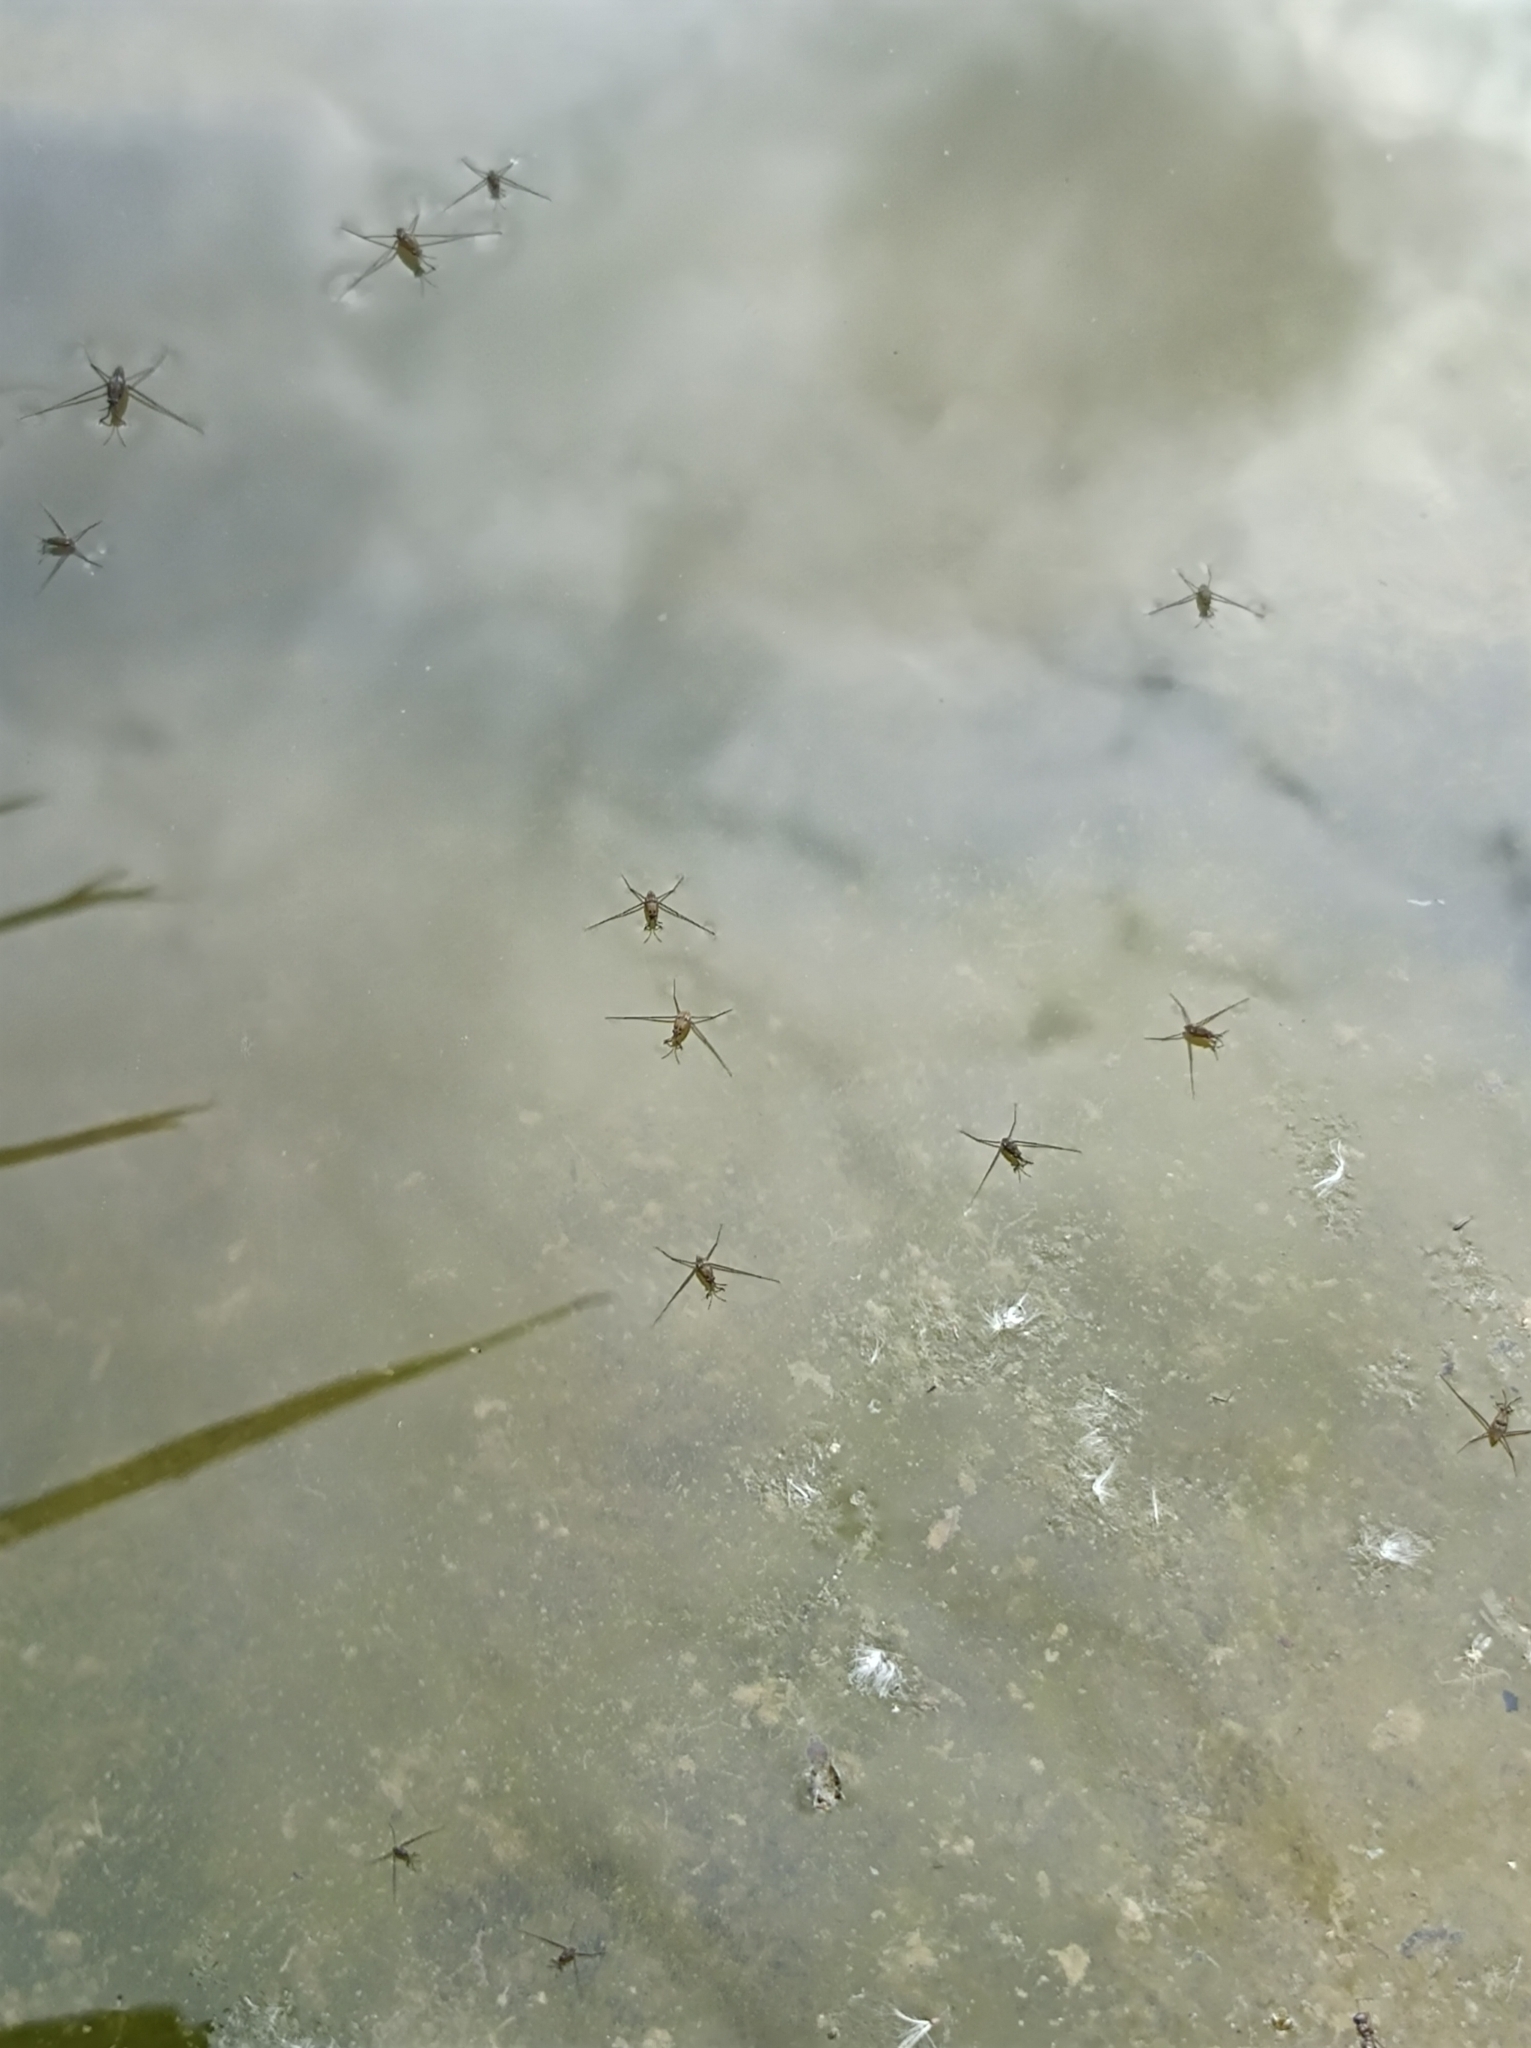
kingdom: Animalia
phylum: Arthropoda
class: Insecta
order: Hemiptera
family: Gerridae
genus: Aquarius
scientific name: Aquarius paludum
